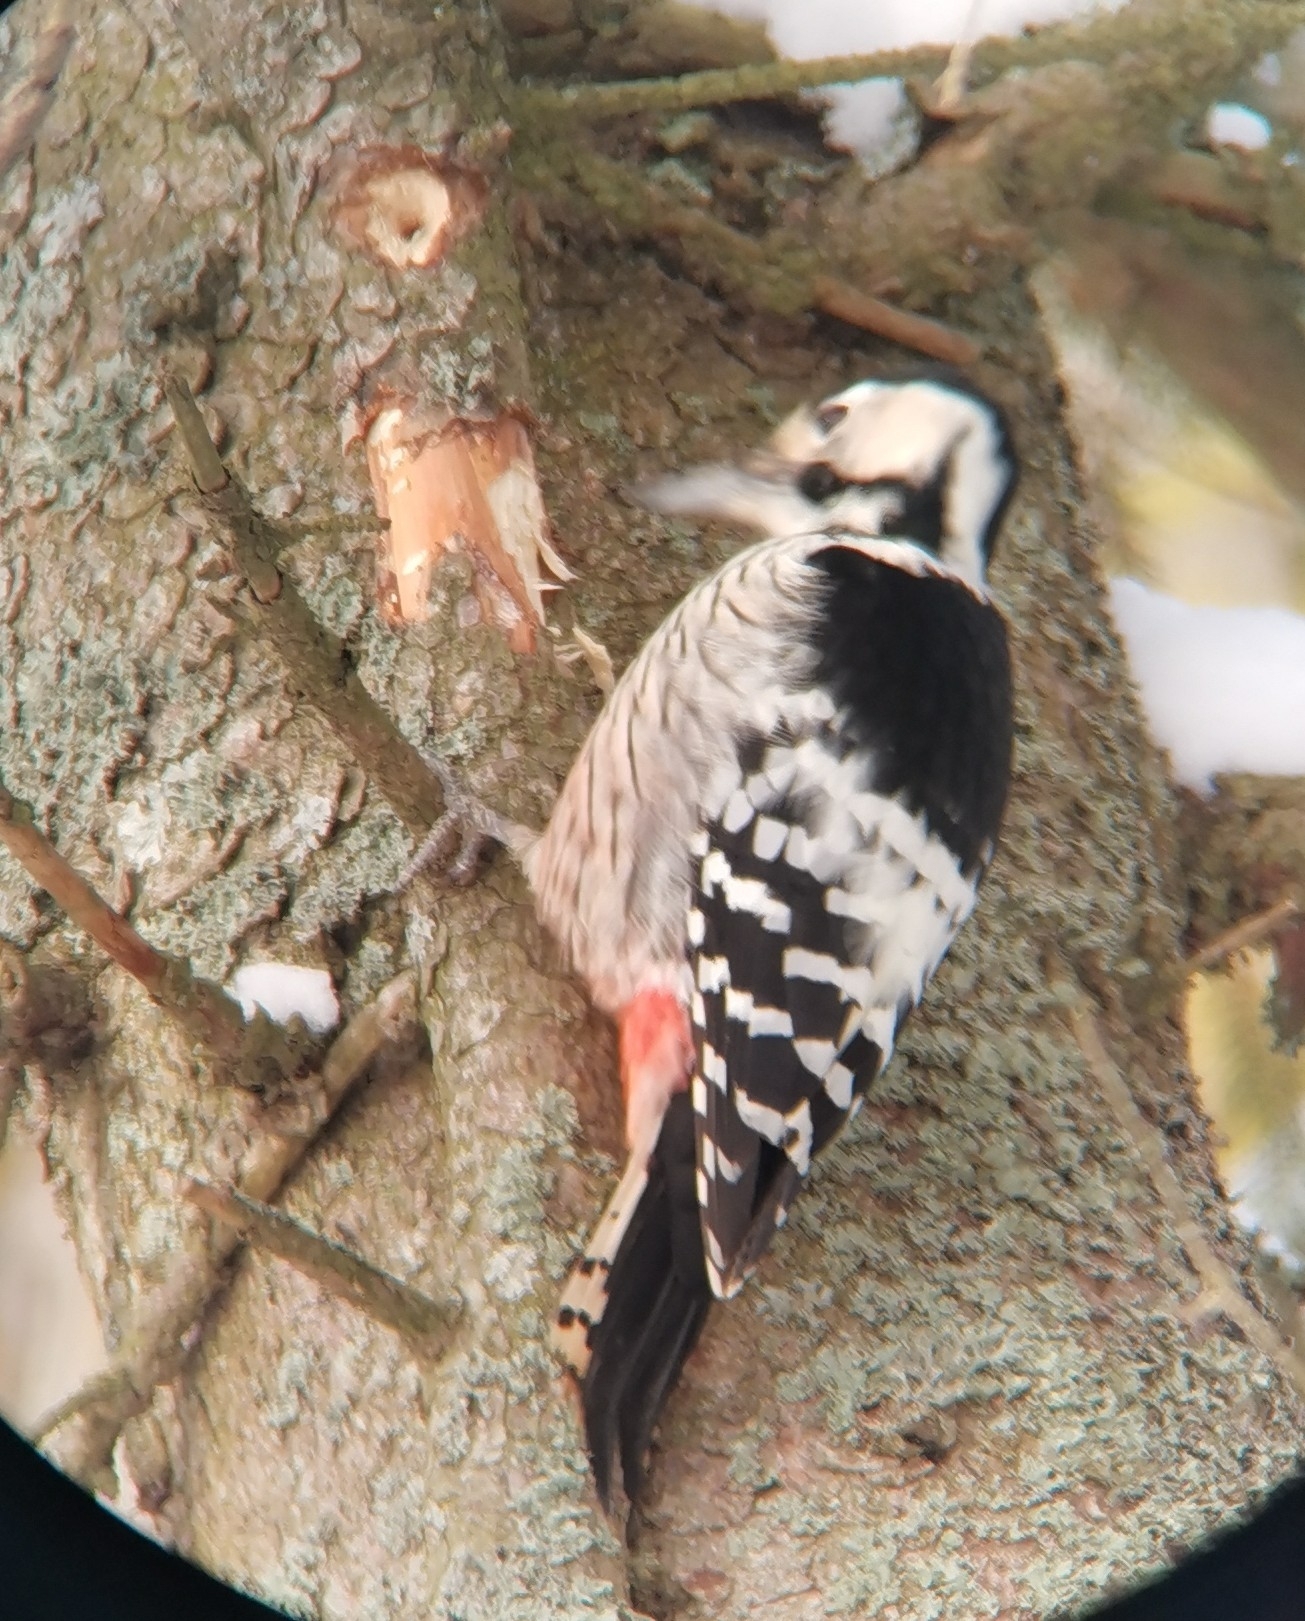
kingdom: Animalia
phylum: Chordata
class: Aves
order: Piciformes
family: Picidae
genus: Dendrocopos
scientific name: Dendrocopos leucotos
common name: White-backed woodpecker
